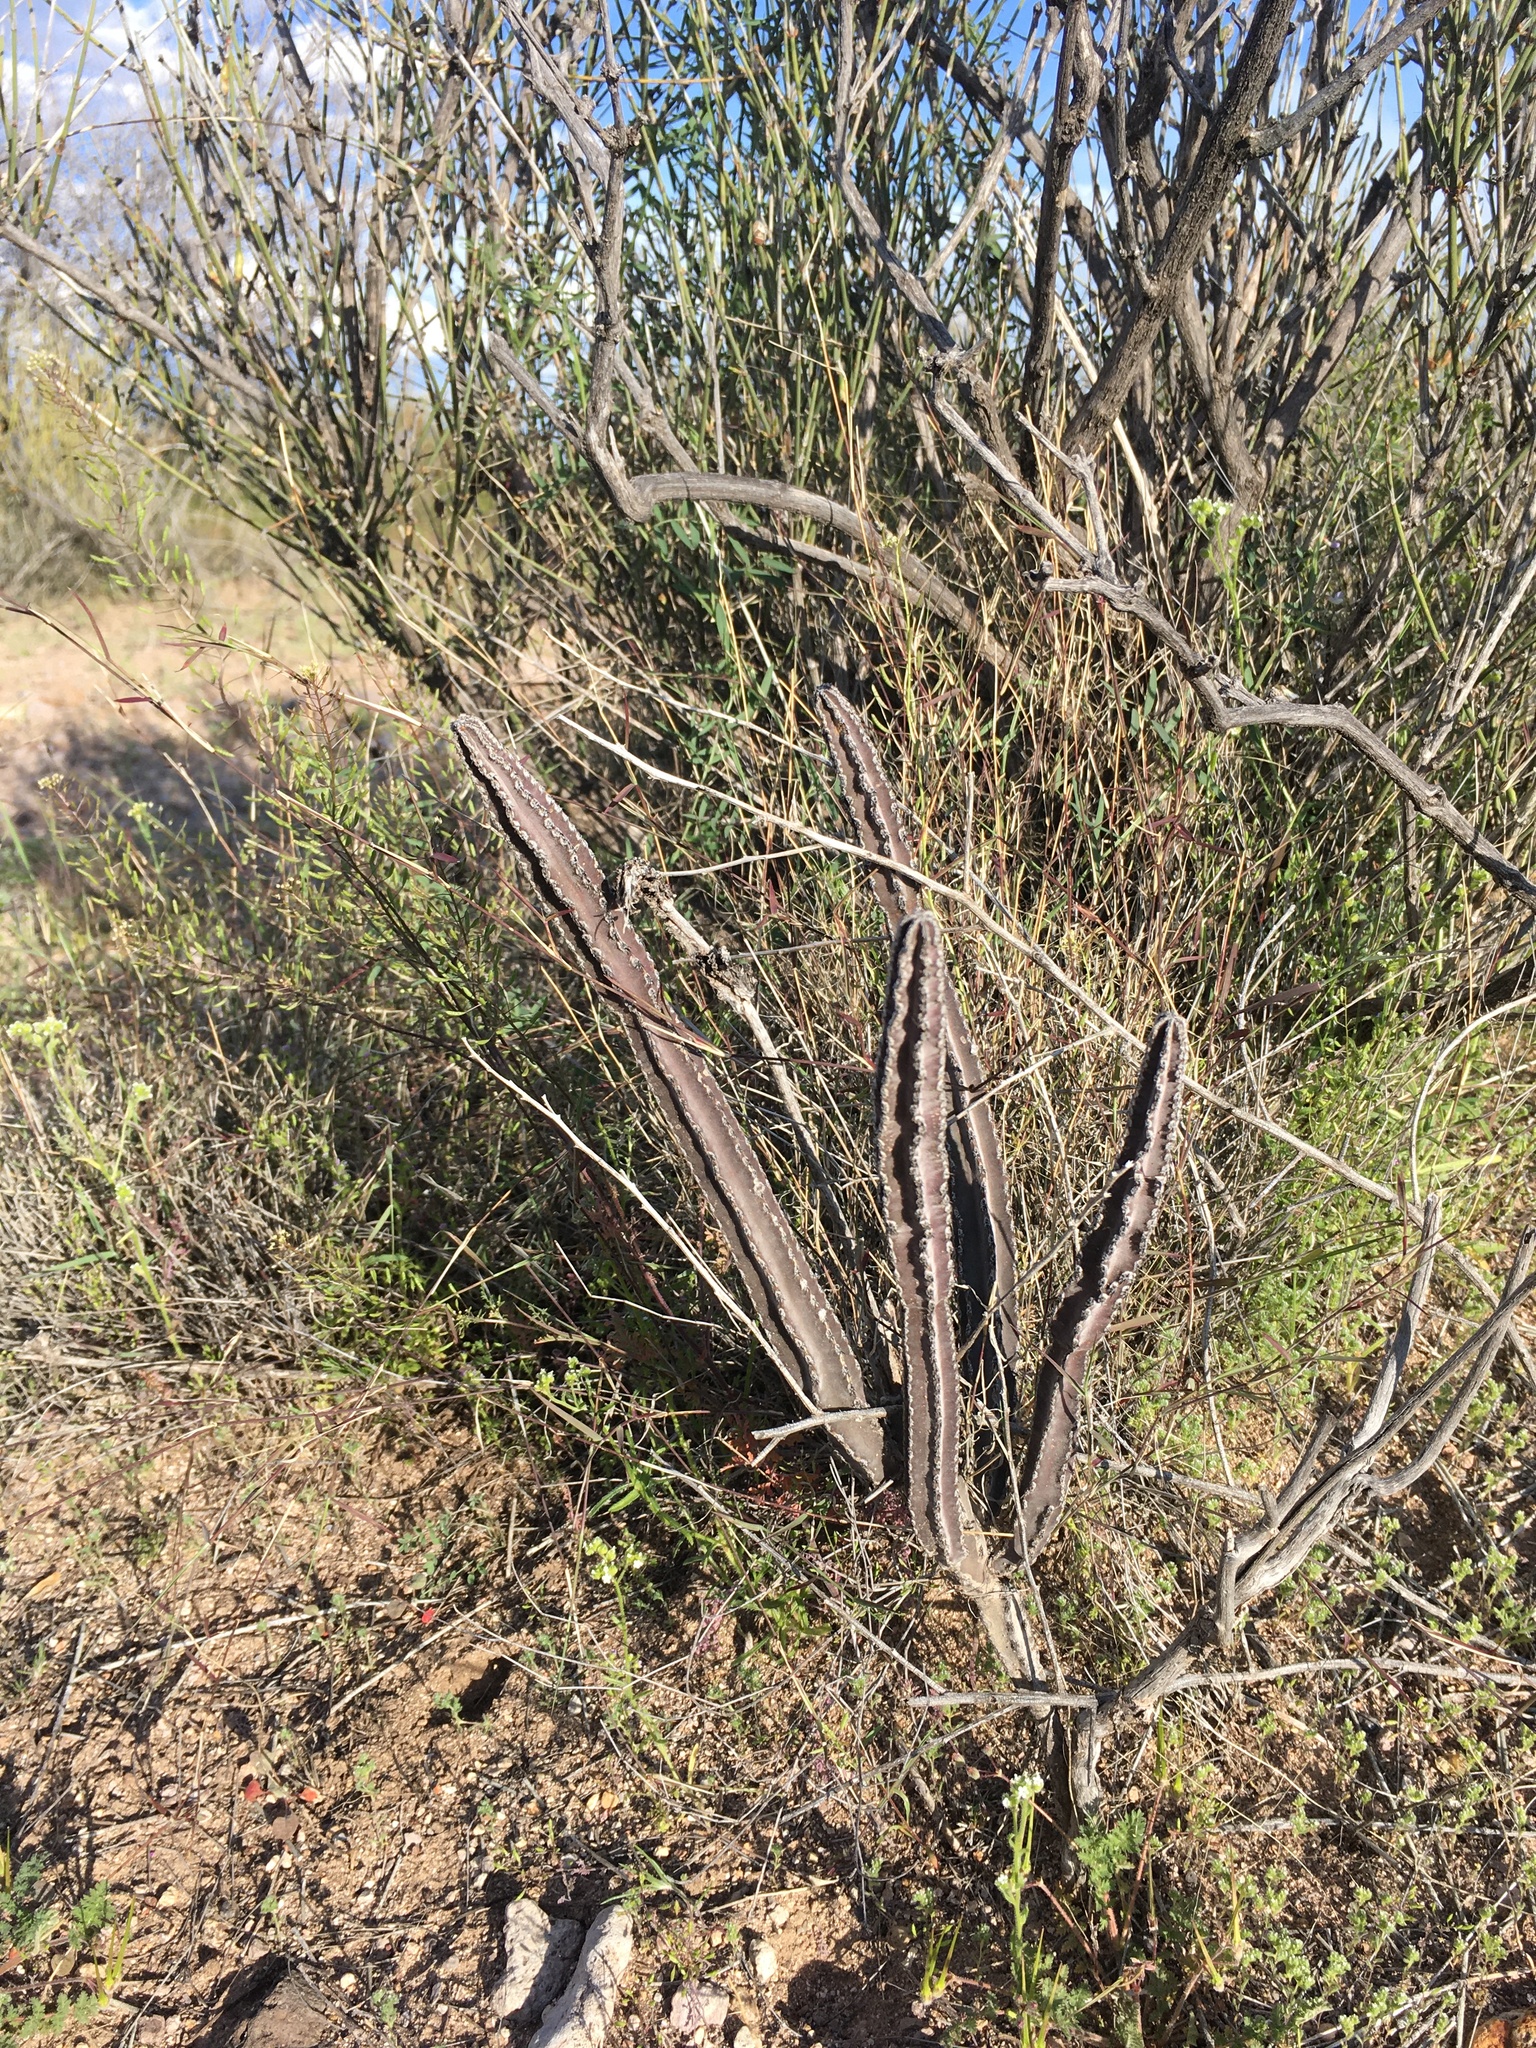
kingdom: Plantae
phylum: Tracheophyta
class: Magnoliopsida
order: Caryophyllales
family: Cactaceae
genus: Peniocereus
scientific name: Peniocereus greggii
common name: Desert night-blooming cereus
